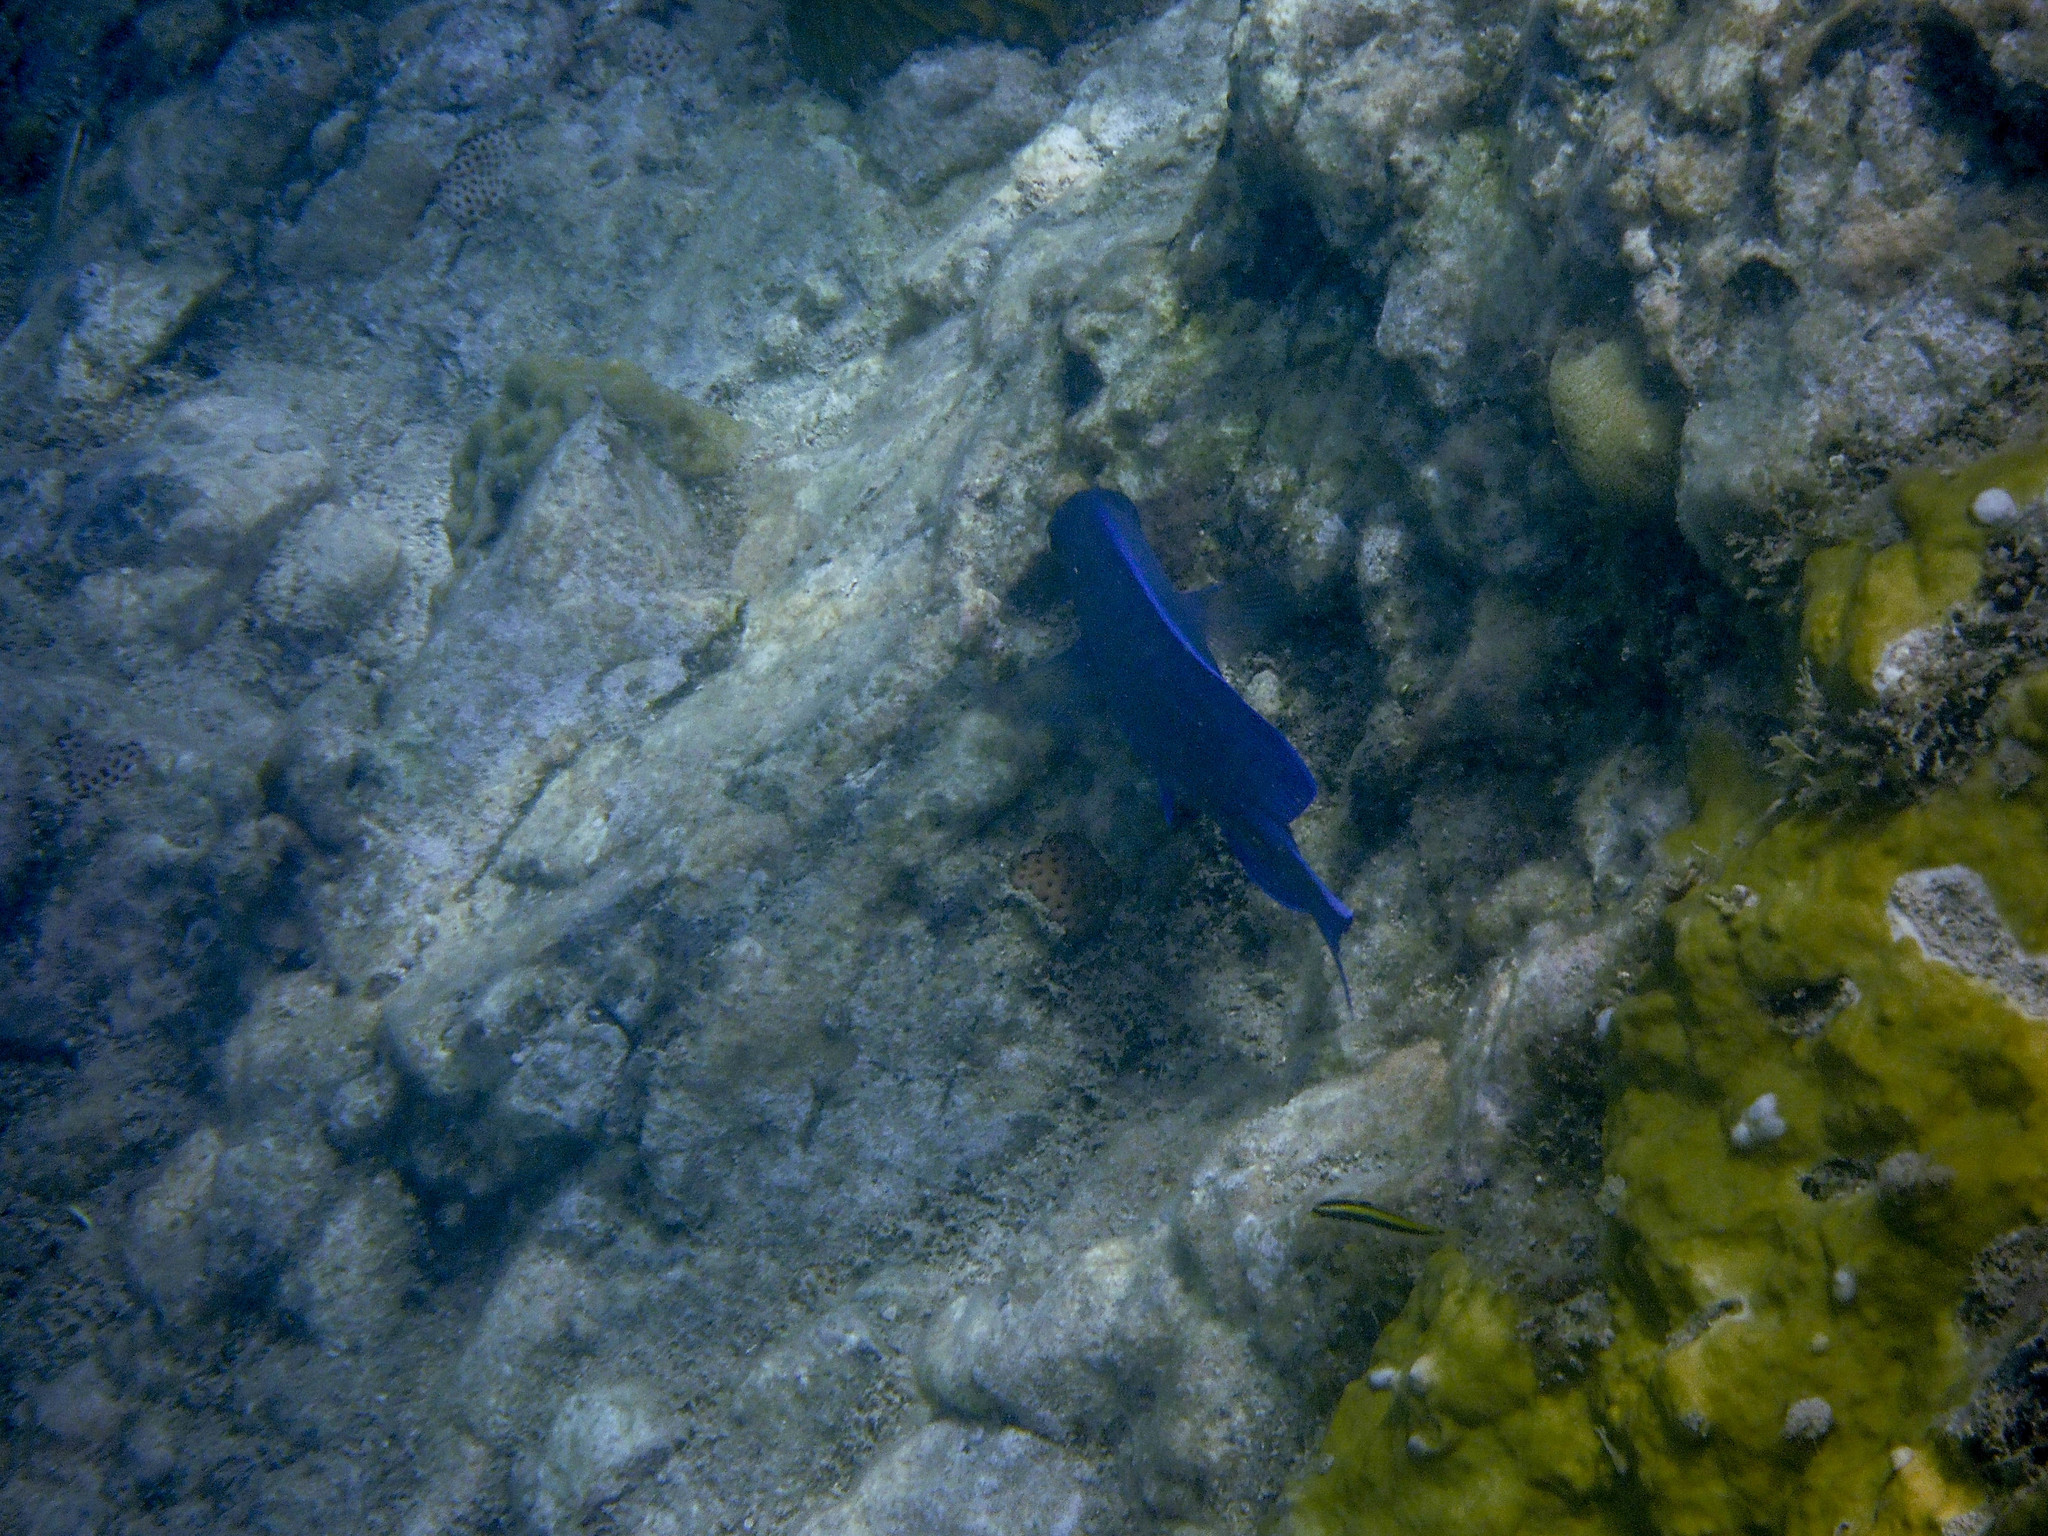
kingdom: Animalia
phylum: Chordata
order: Perciformes
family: Acanthuridae
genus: Acanthurus
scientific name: Acanthurus coeruleus
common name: Blue tang
